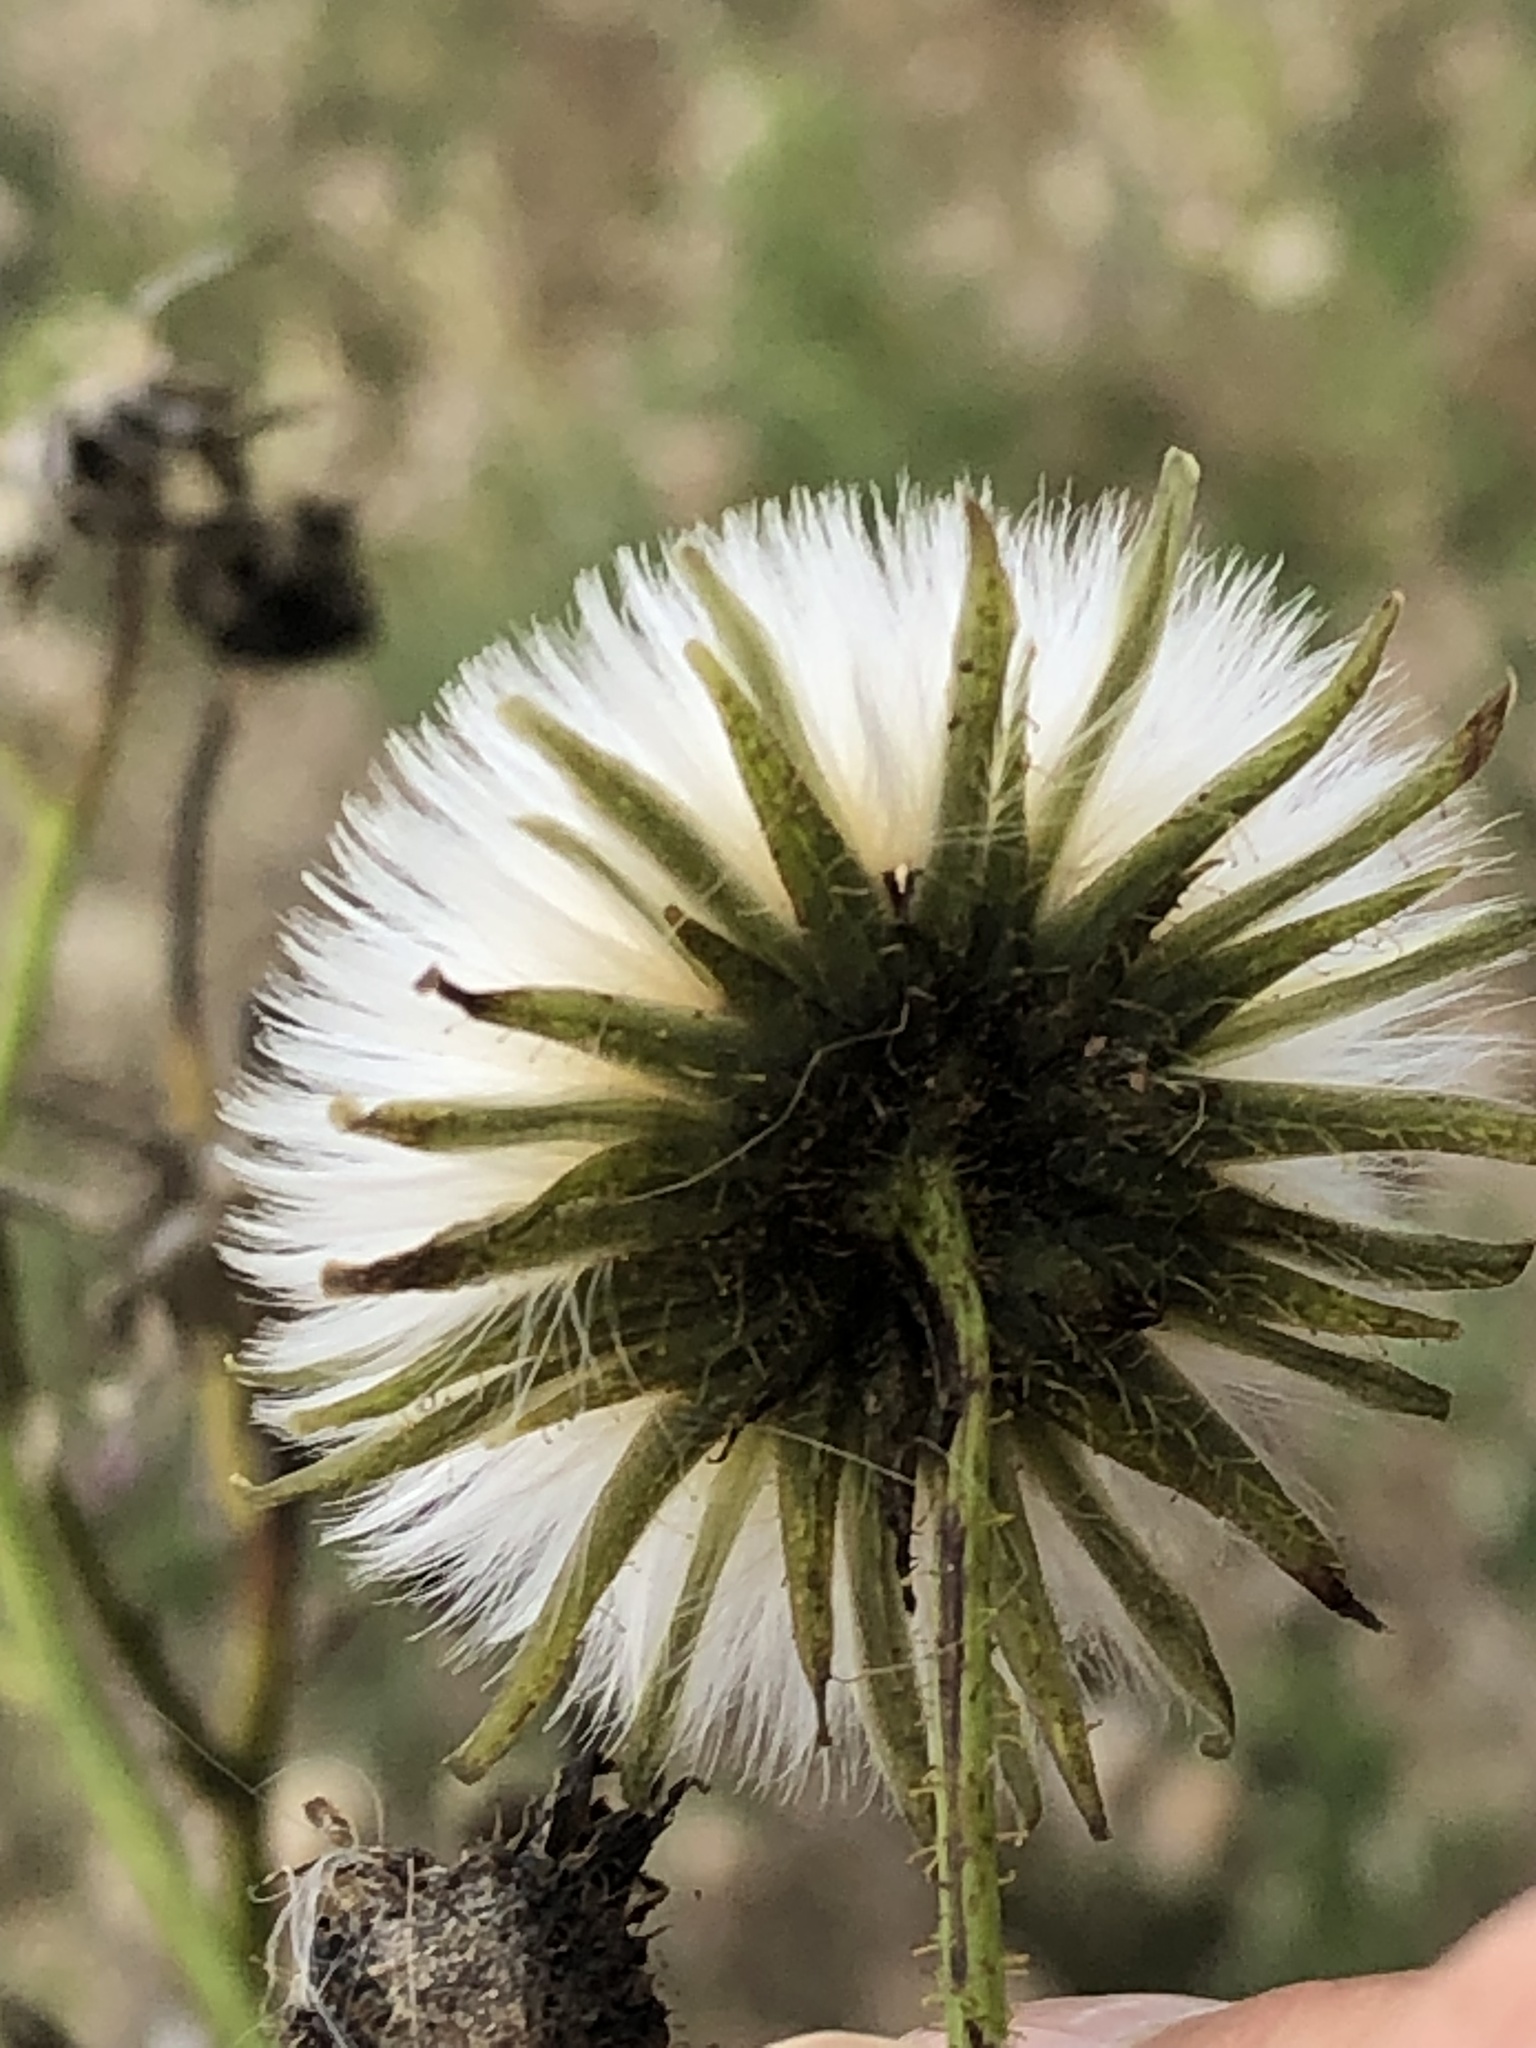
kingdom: Plantae
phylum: Tracheophyta
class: Magnoliopsida
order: Asterales
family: Asteraceae
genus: Sonchus
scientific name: Sonchus arvensis
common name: Perennial sow-thistle
